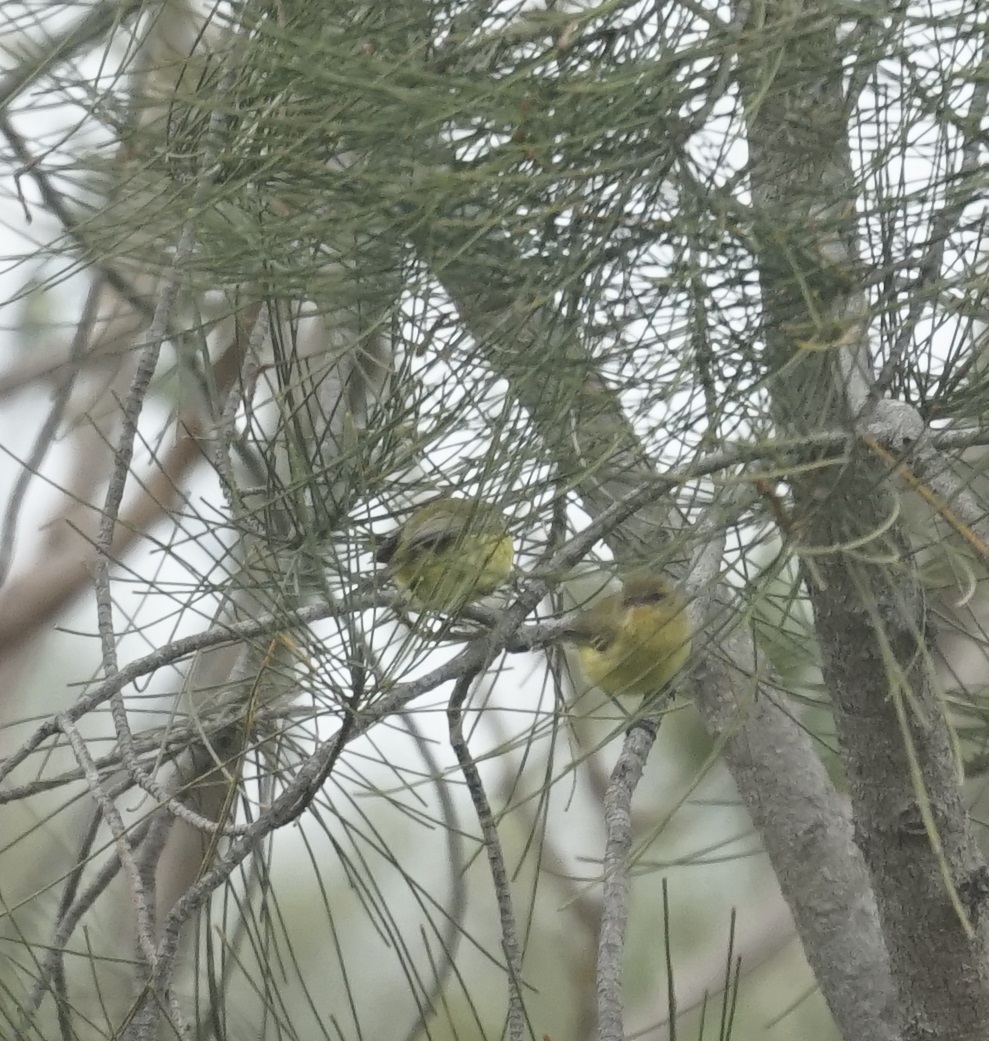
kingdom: Animalia
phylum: Chordata
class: Aves
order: Passeriformes
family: Acanthizidae
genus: Acanthiza
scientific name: Acanthiza nana
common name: Yellow thornbill
